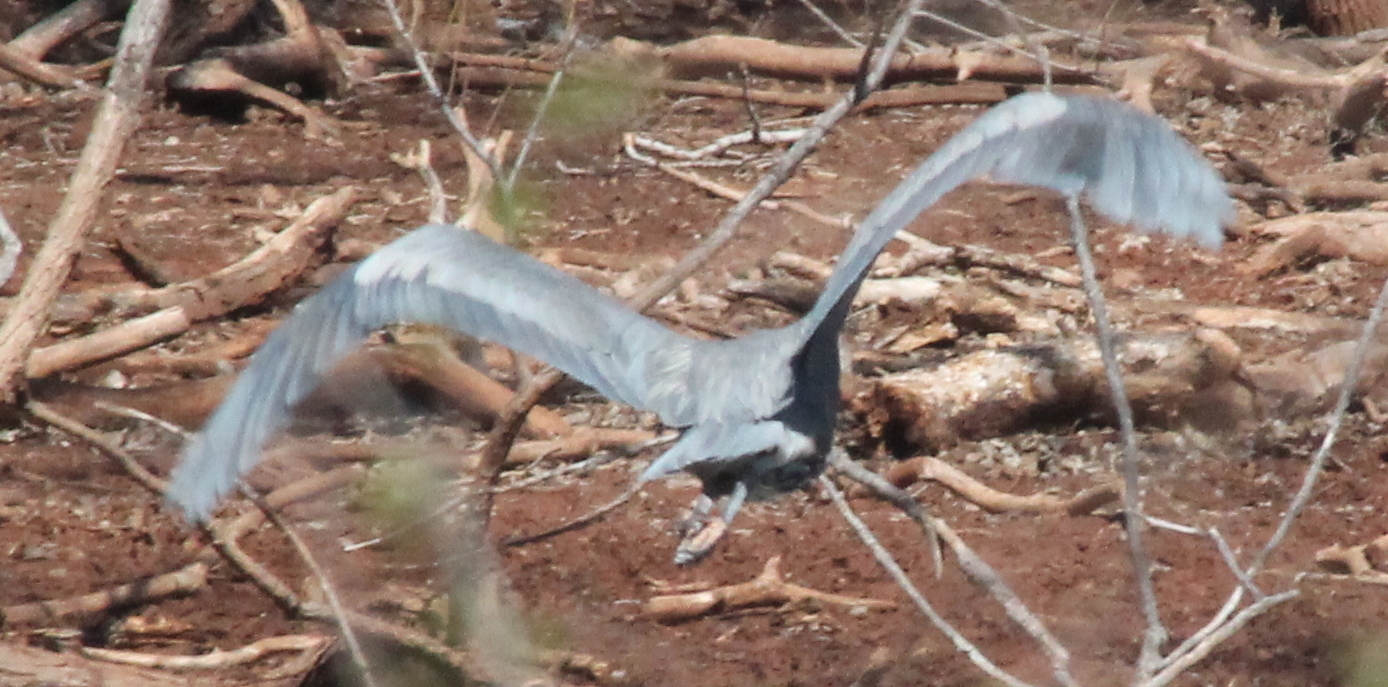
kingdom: Animalia
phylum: Chordata
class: Aves
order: Pelecaniformes
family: Ardeidae
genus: Ardea
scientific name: Ardea herodias
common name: Great blue heron
